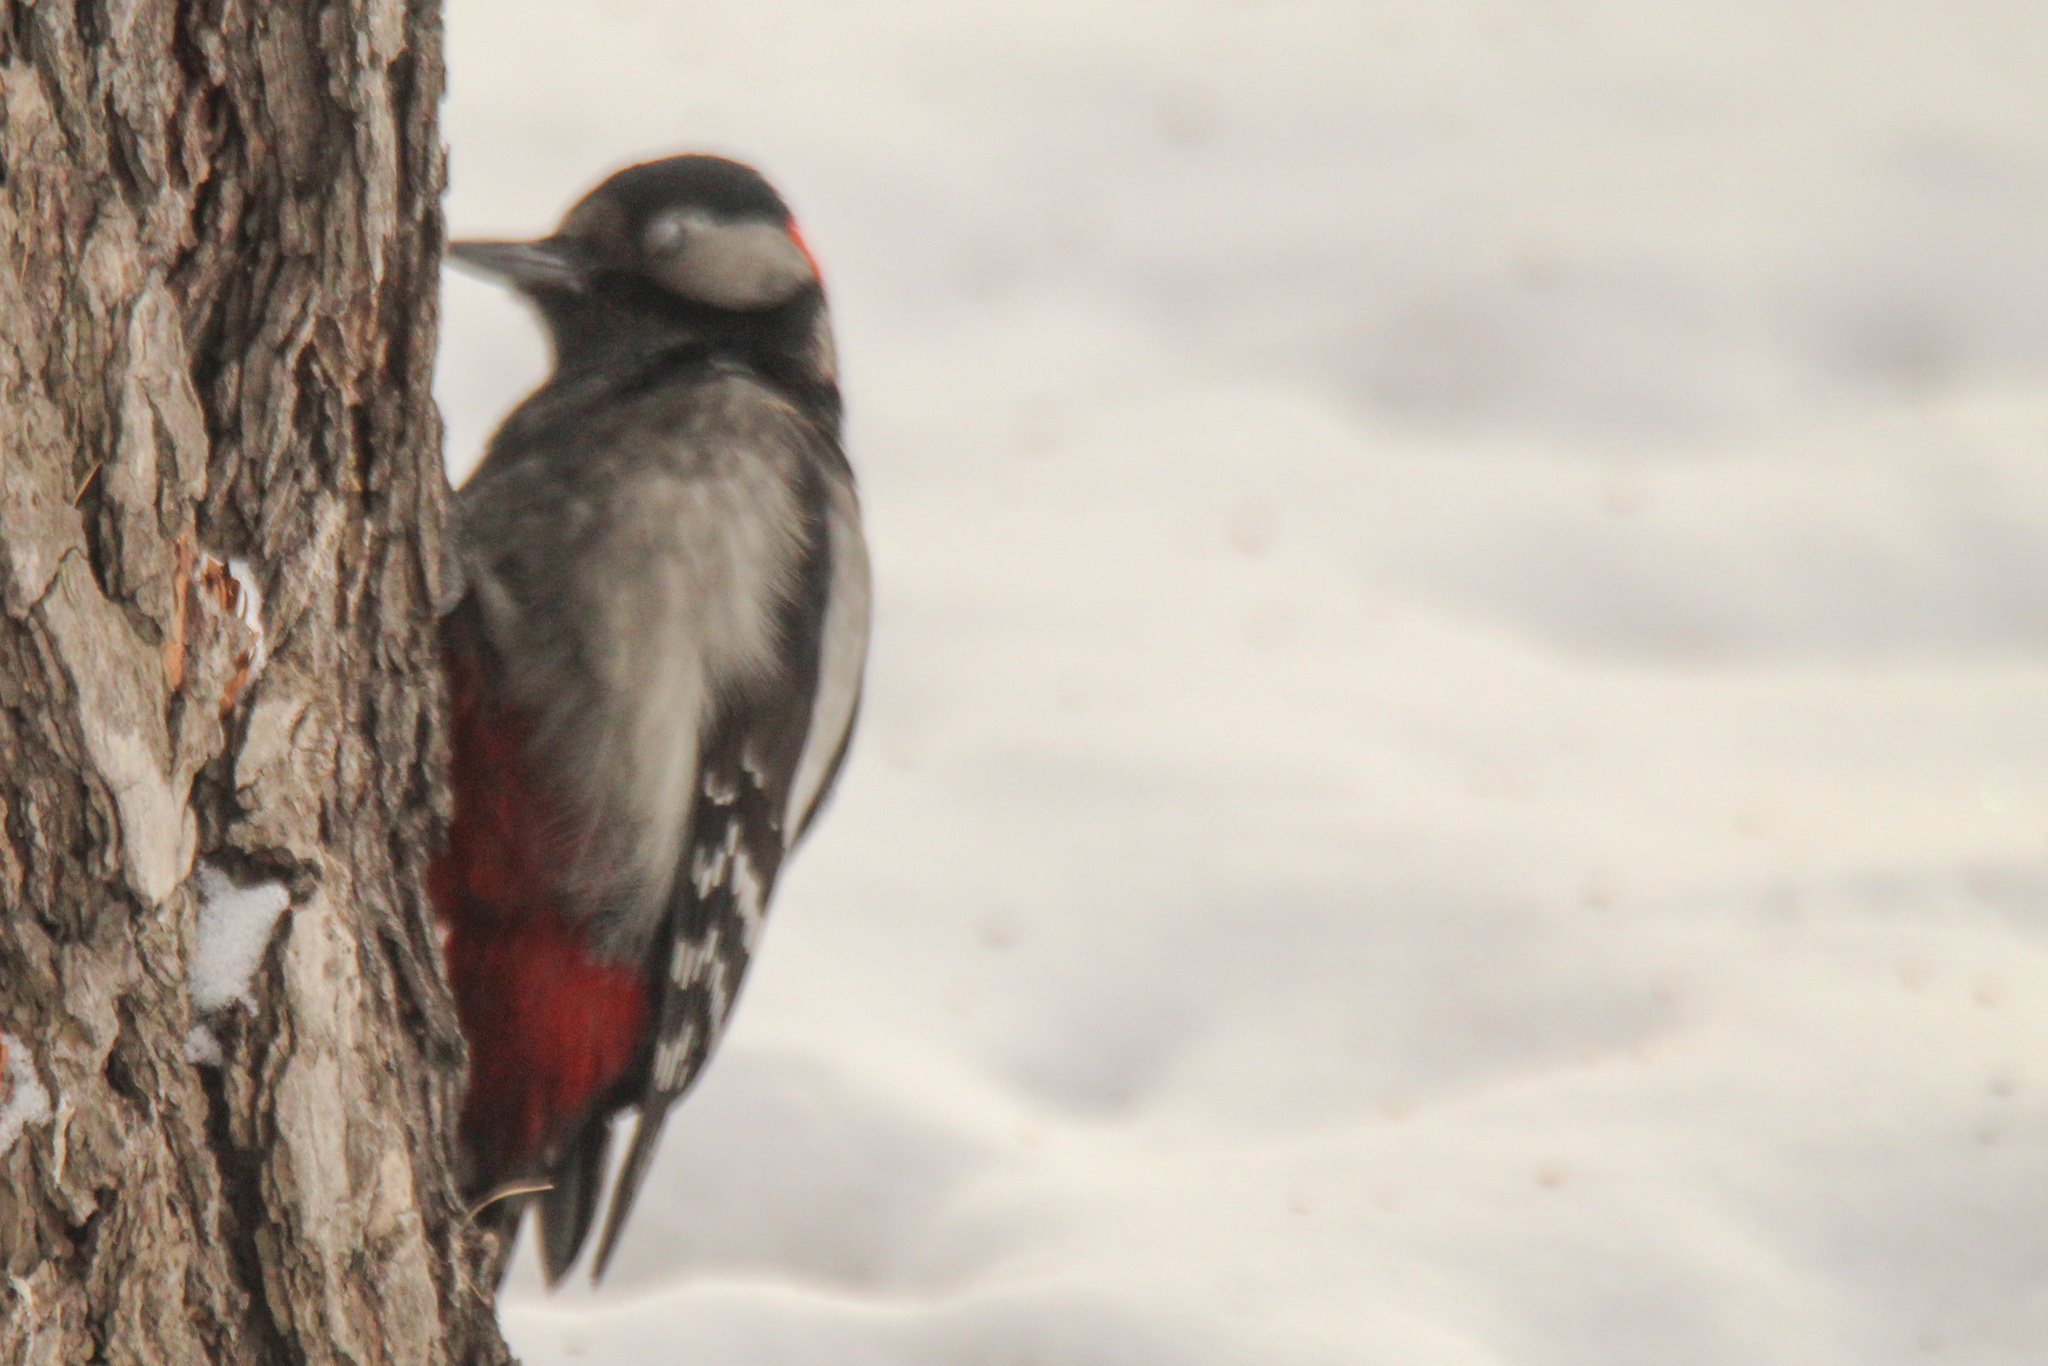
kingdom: Animalia
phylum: Chordata
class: Aves
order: Piciformes
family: Picidae
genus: Dendrocopos
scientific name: Dendrocopos major
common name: Great spotted woodpecker
